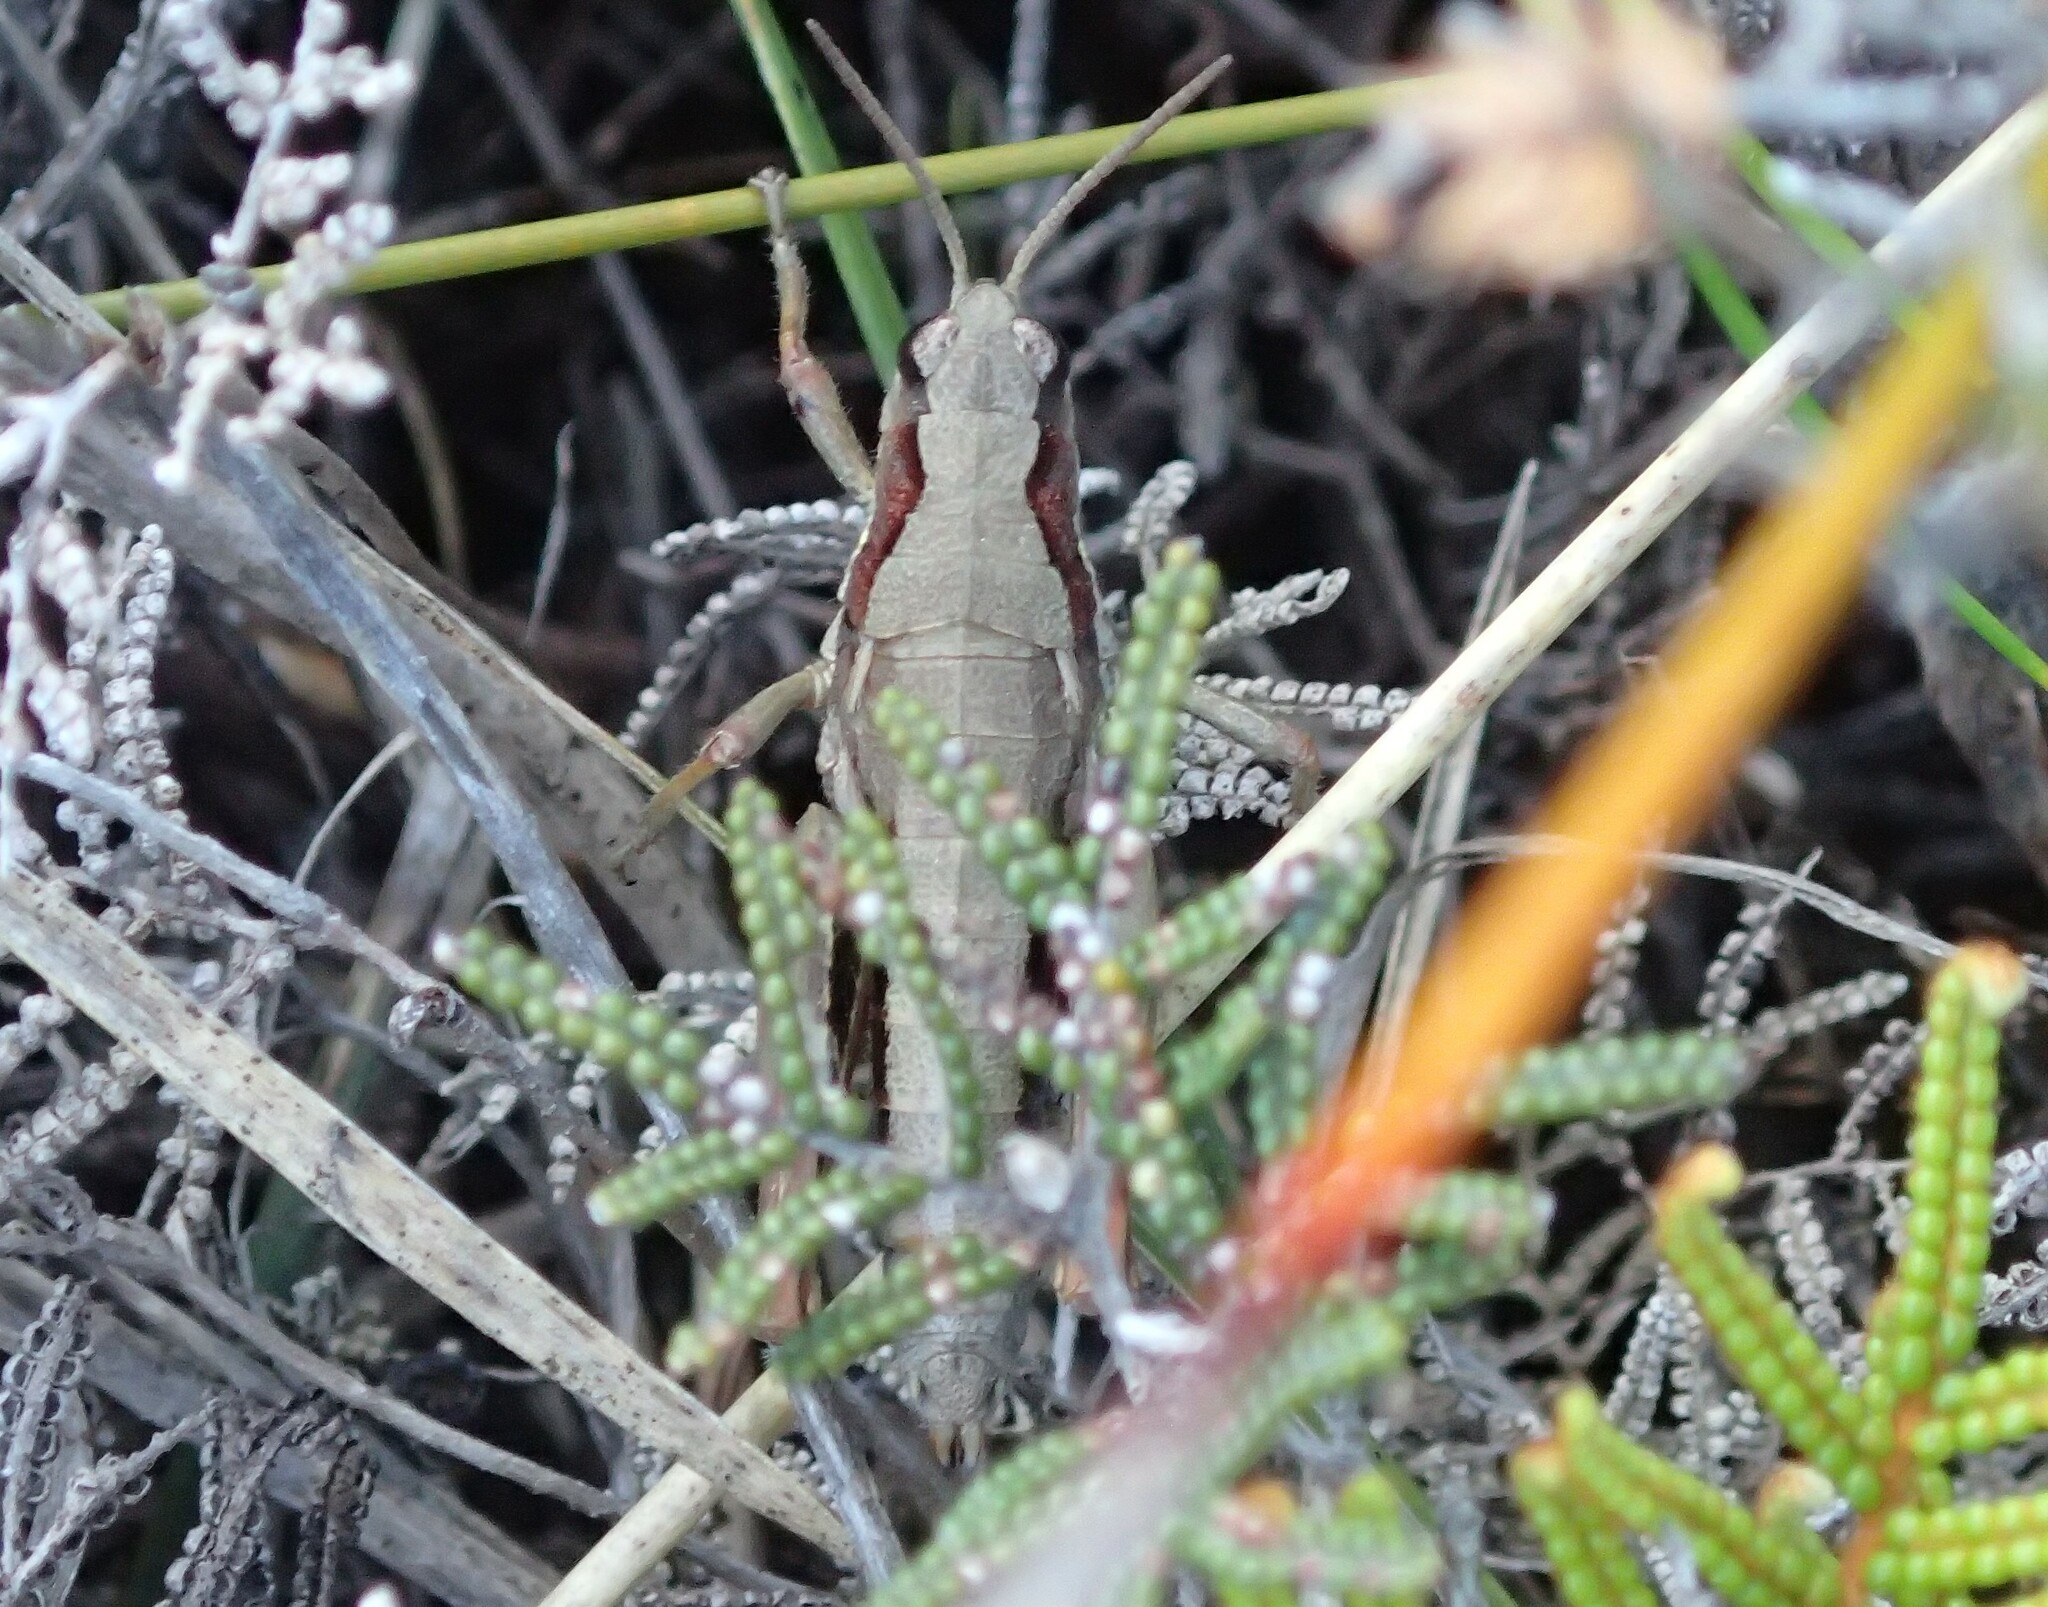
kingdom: Animalia
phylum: Arthropoda
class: Insecta
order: Orthoptera
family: Acrididae
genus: Tasmaniacris
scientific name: Tasmaniacris tasmaniensis
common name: Tasmanian grasshopper
